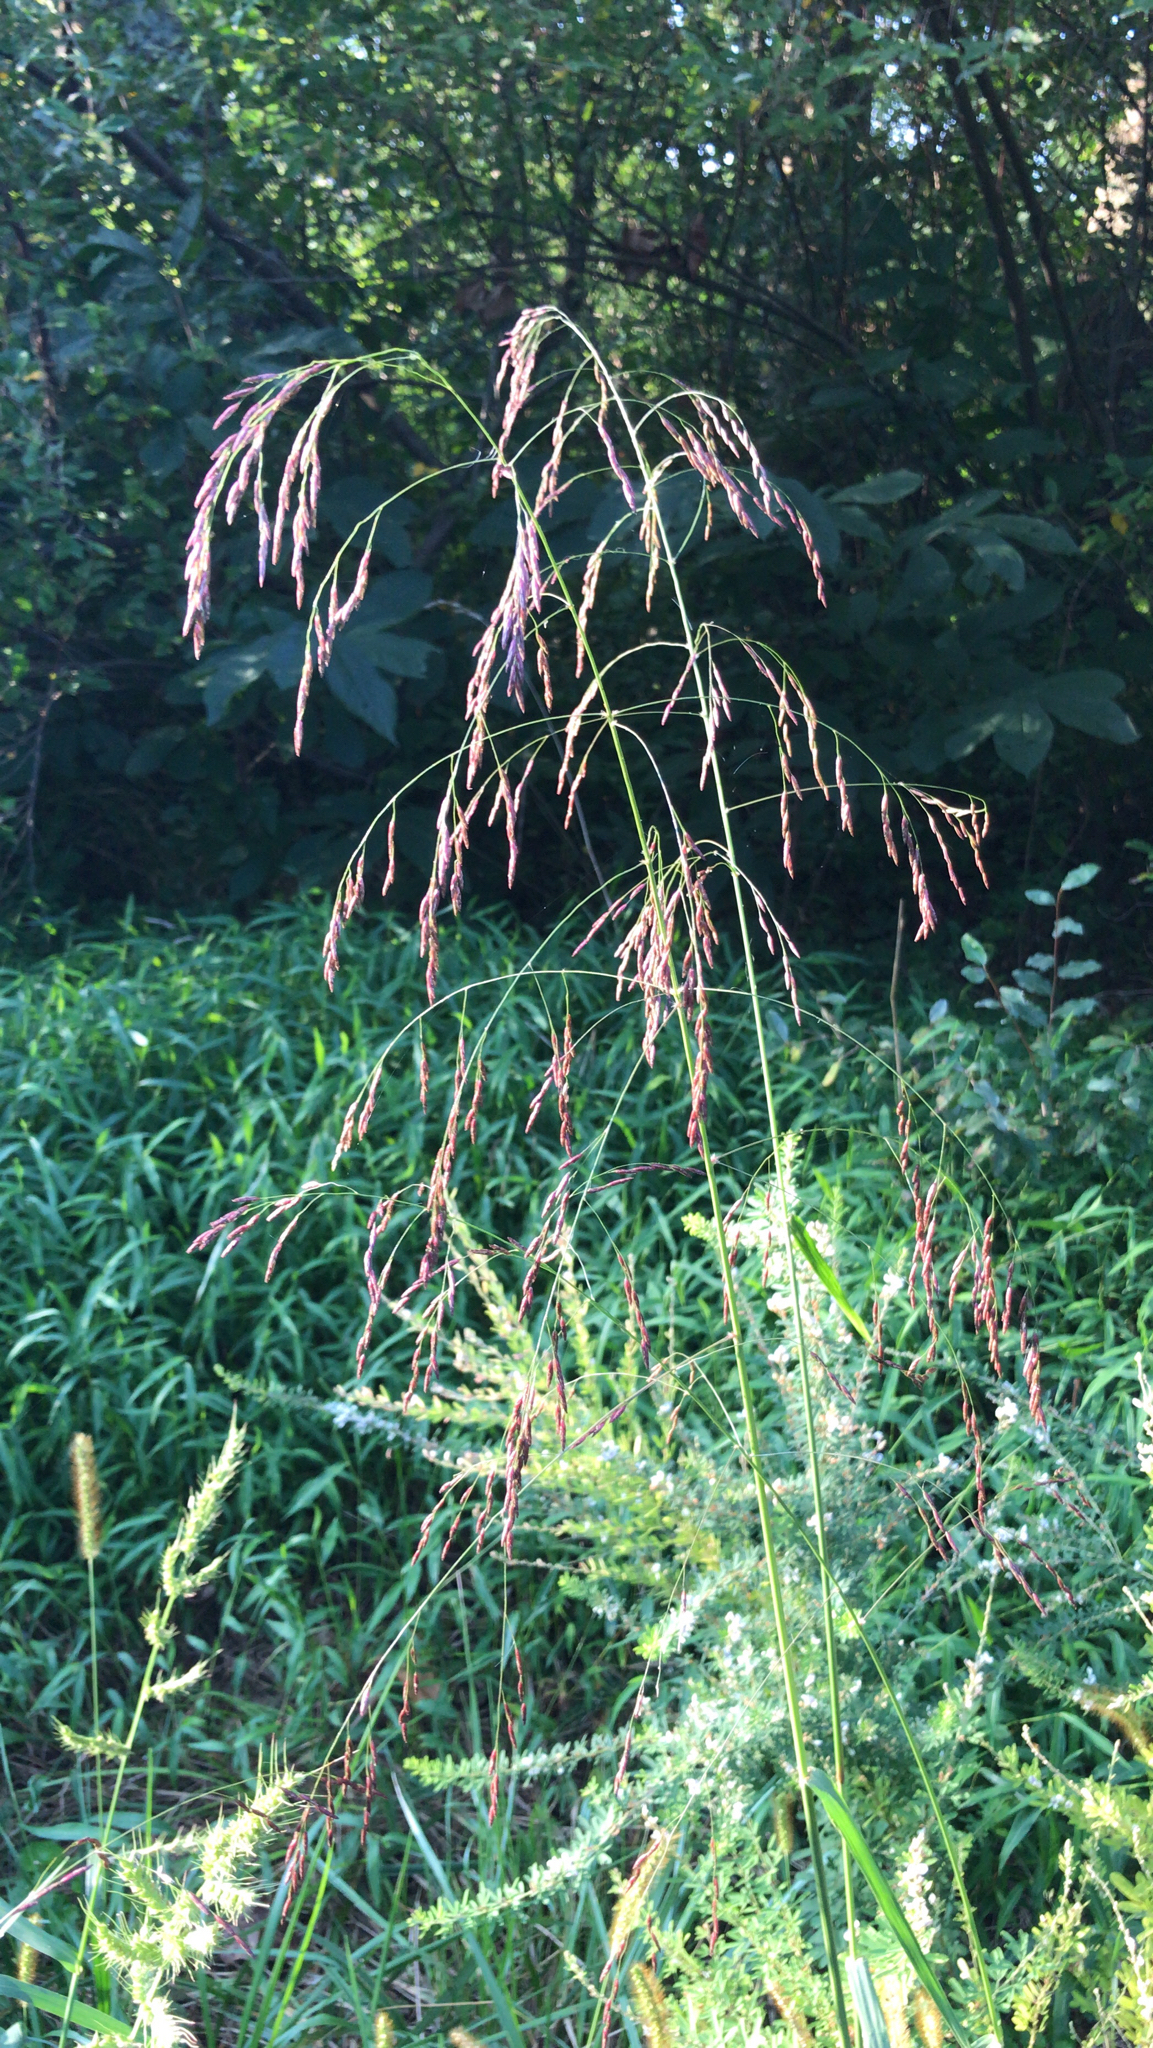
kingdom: Plantae
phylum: Tracheophyta
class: Liliopsida
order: Poales
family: Poaceae
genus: Tridens
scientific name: Tridens flavus
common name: Purpletop
